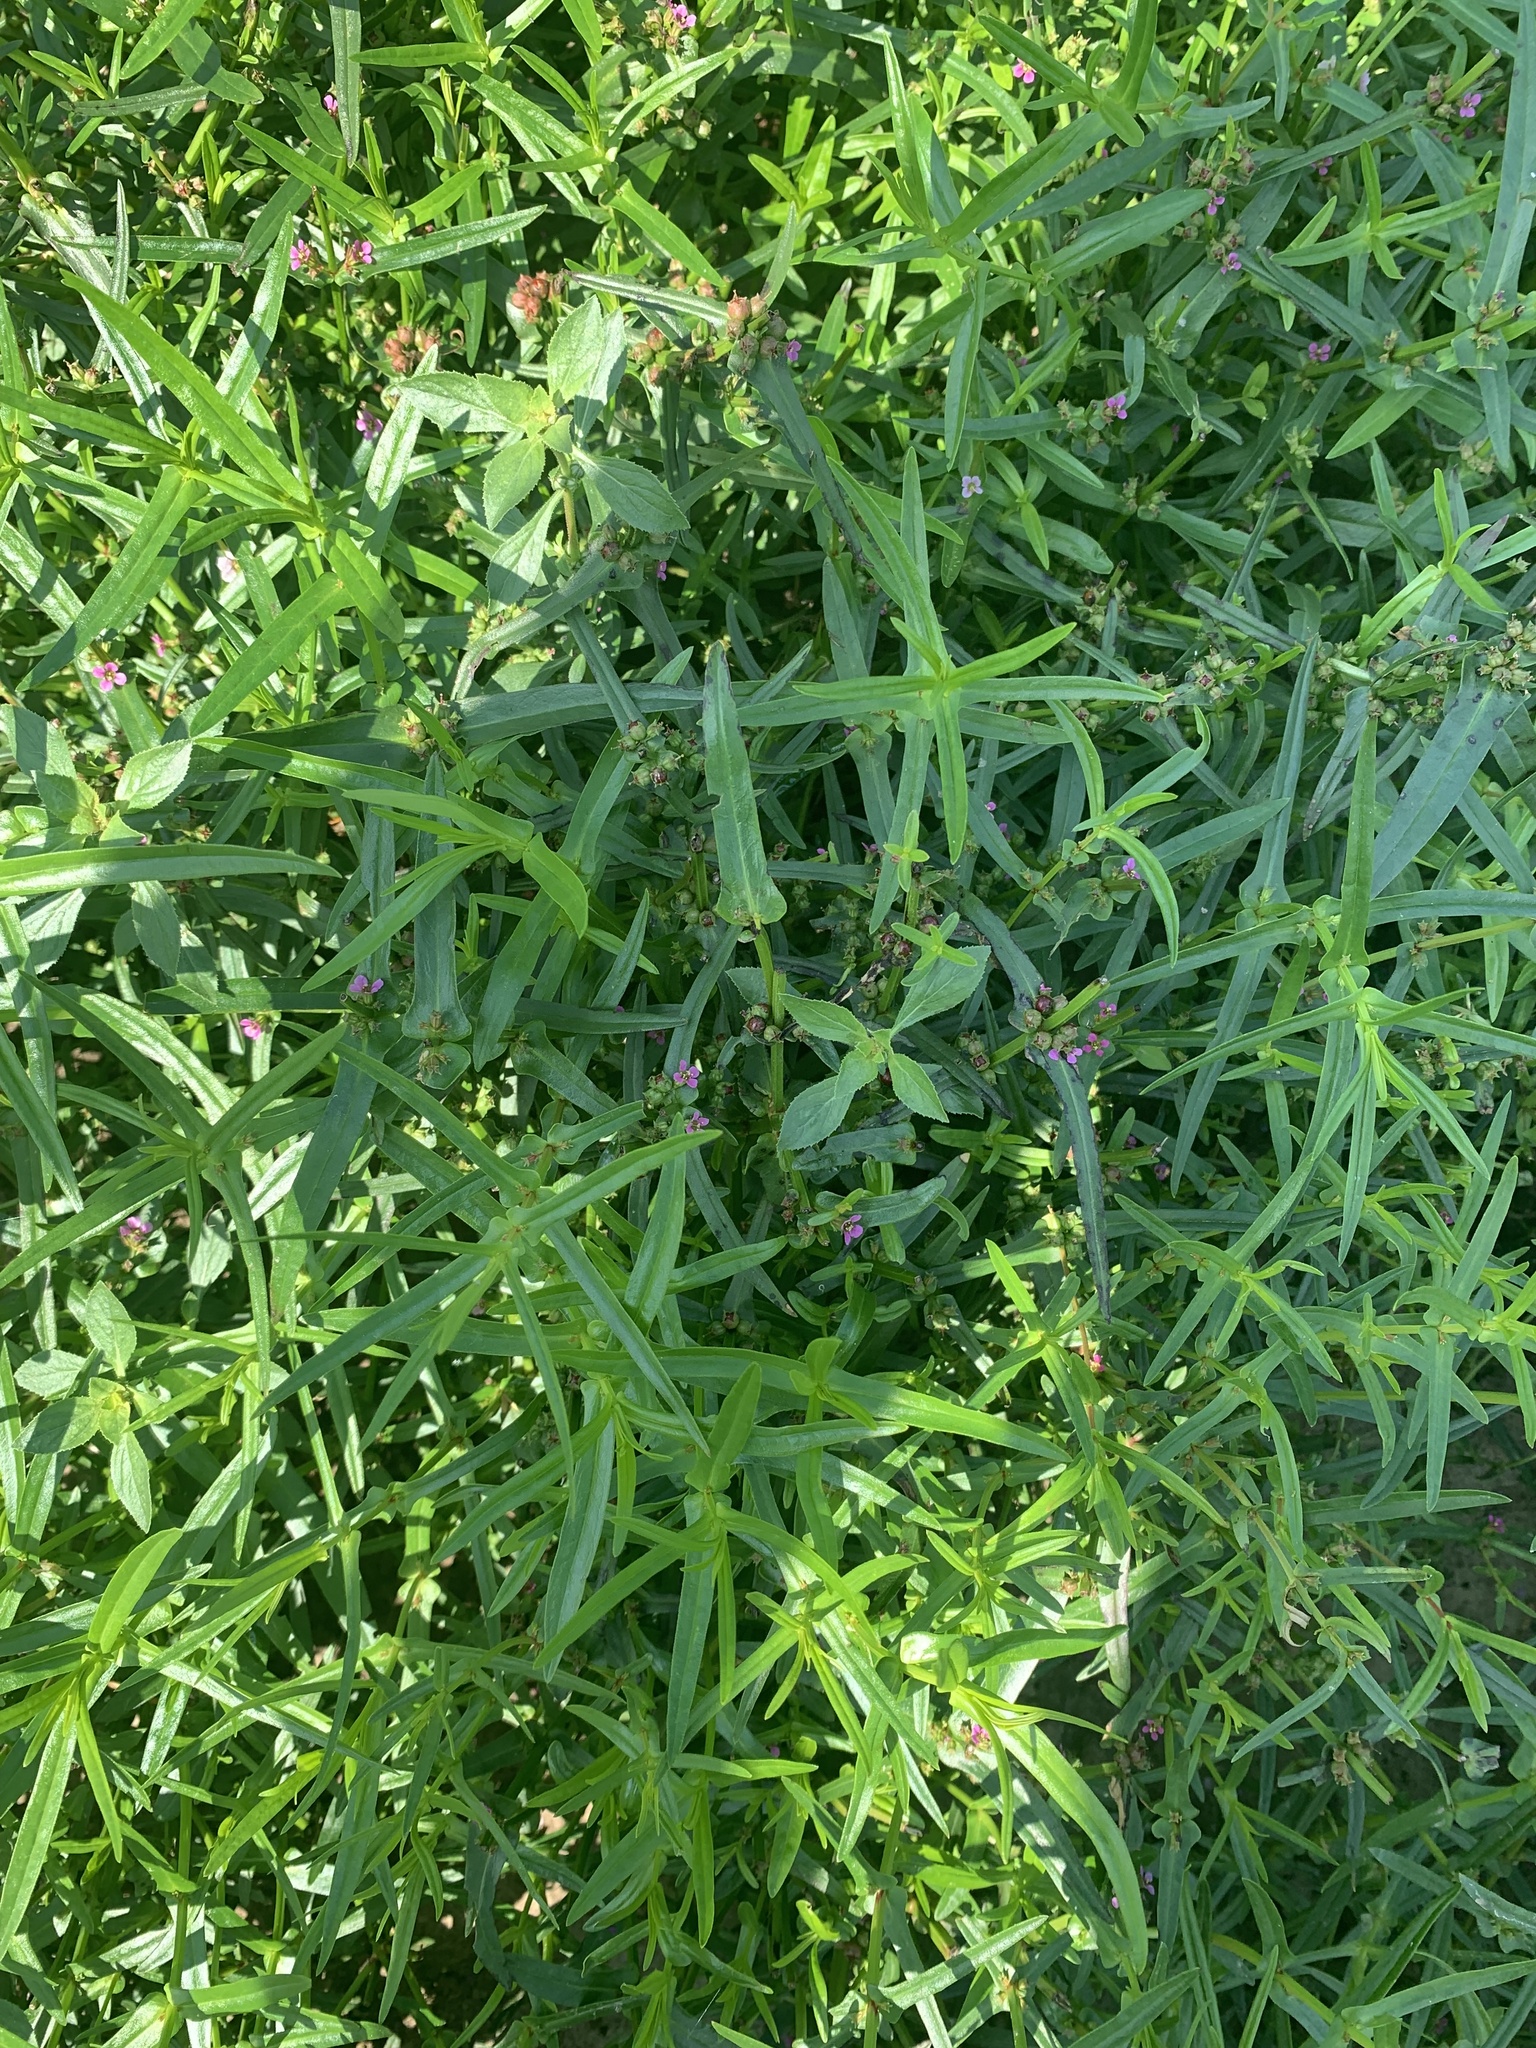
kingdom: Plantae
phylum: Tracheophyta
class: Magnoliopsida
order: Myrtales
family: Lythraceae
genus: Ammannia
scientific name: Ammannia coccinea
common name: Valley redstem
